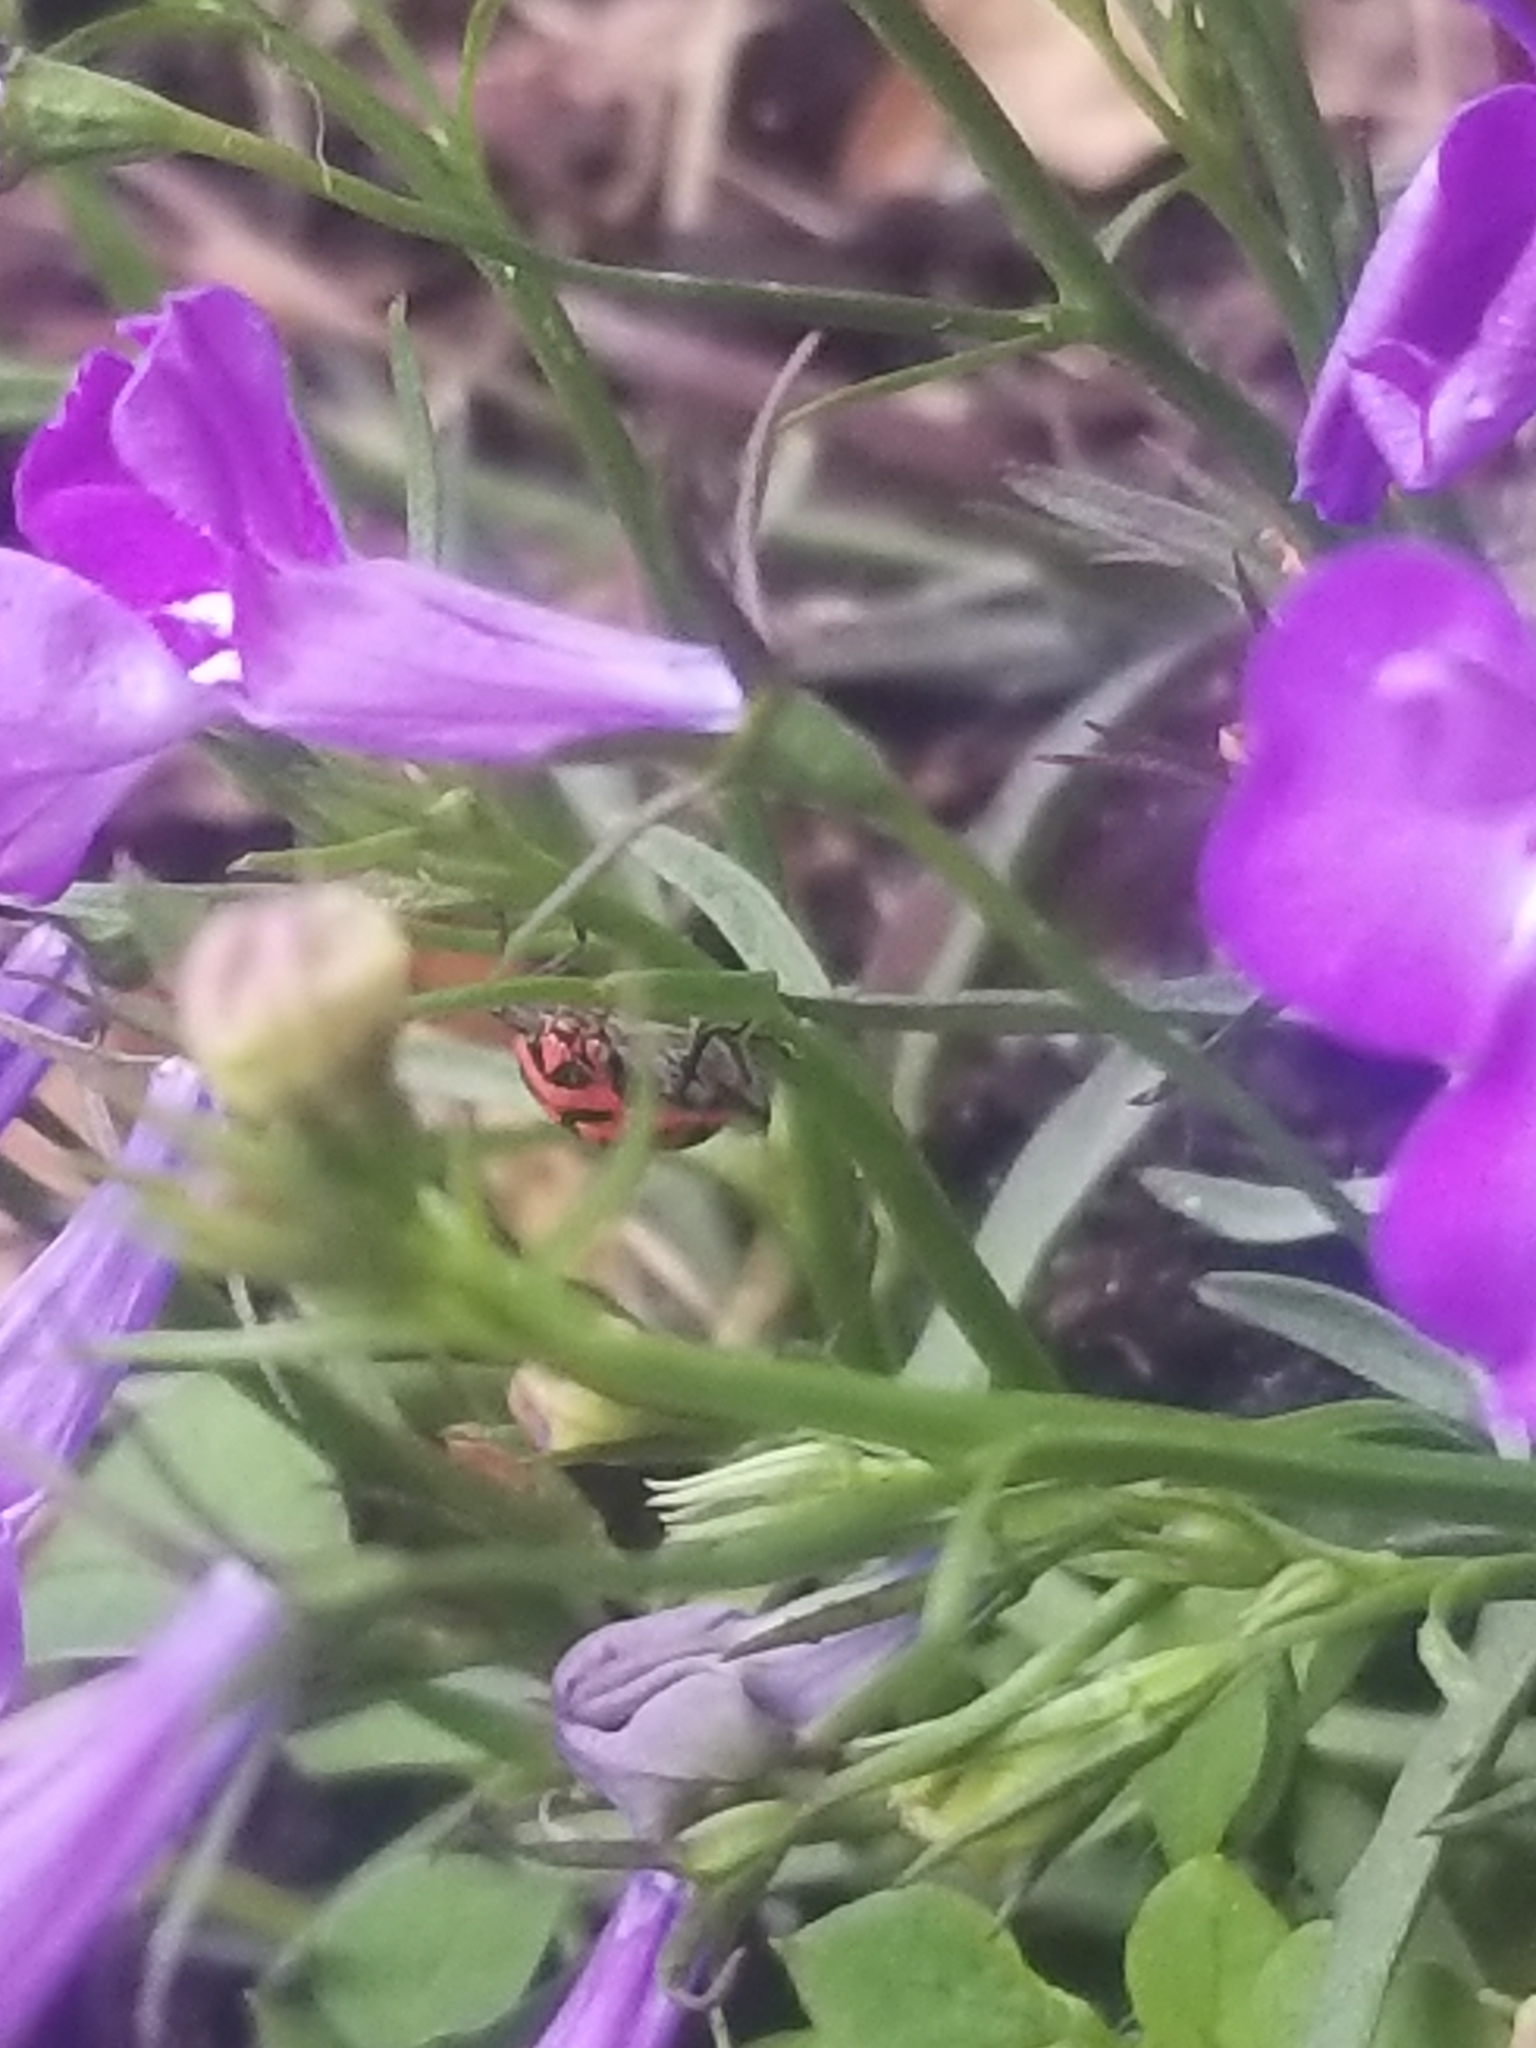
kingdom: Animalia
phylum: Arthropoda
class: Insecta
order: Coleoptera
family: Coccinellidae
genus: Coleomegilla
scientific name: Coleomegilla maculata
